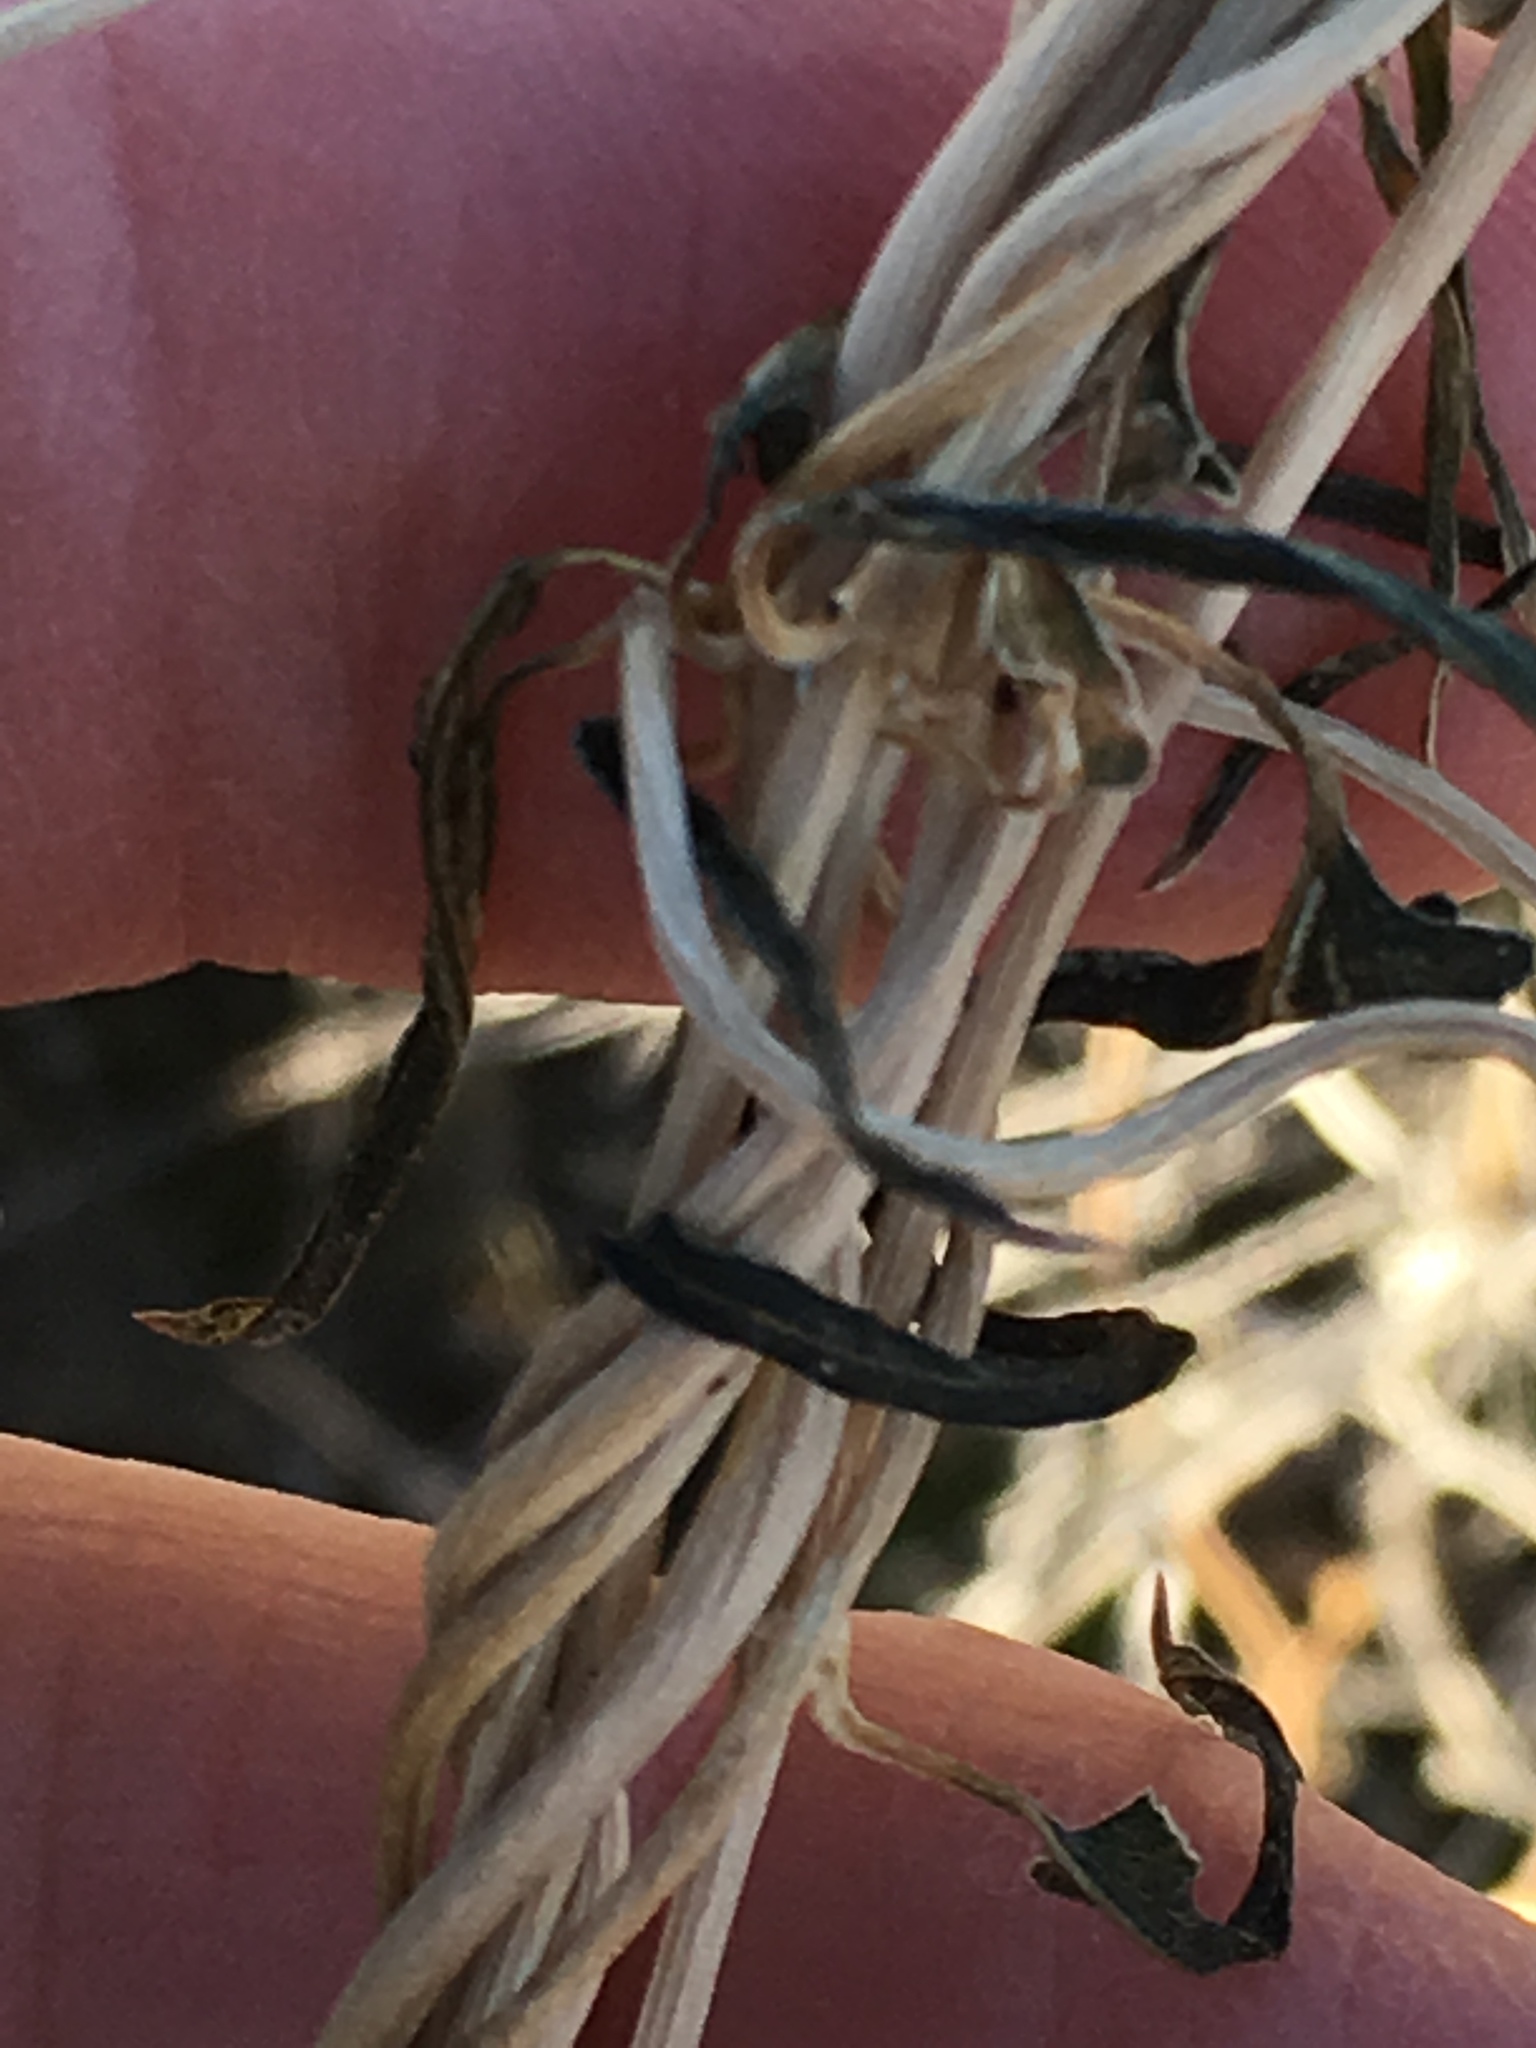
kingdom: Plantae
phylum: Tracheophyta
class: Magnoliopsida
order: Gentianales
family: Apocynaceae
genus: Funastrum
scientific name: Funastrum heterophyllum
